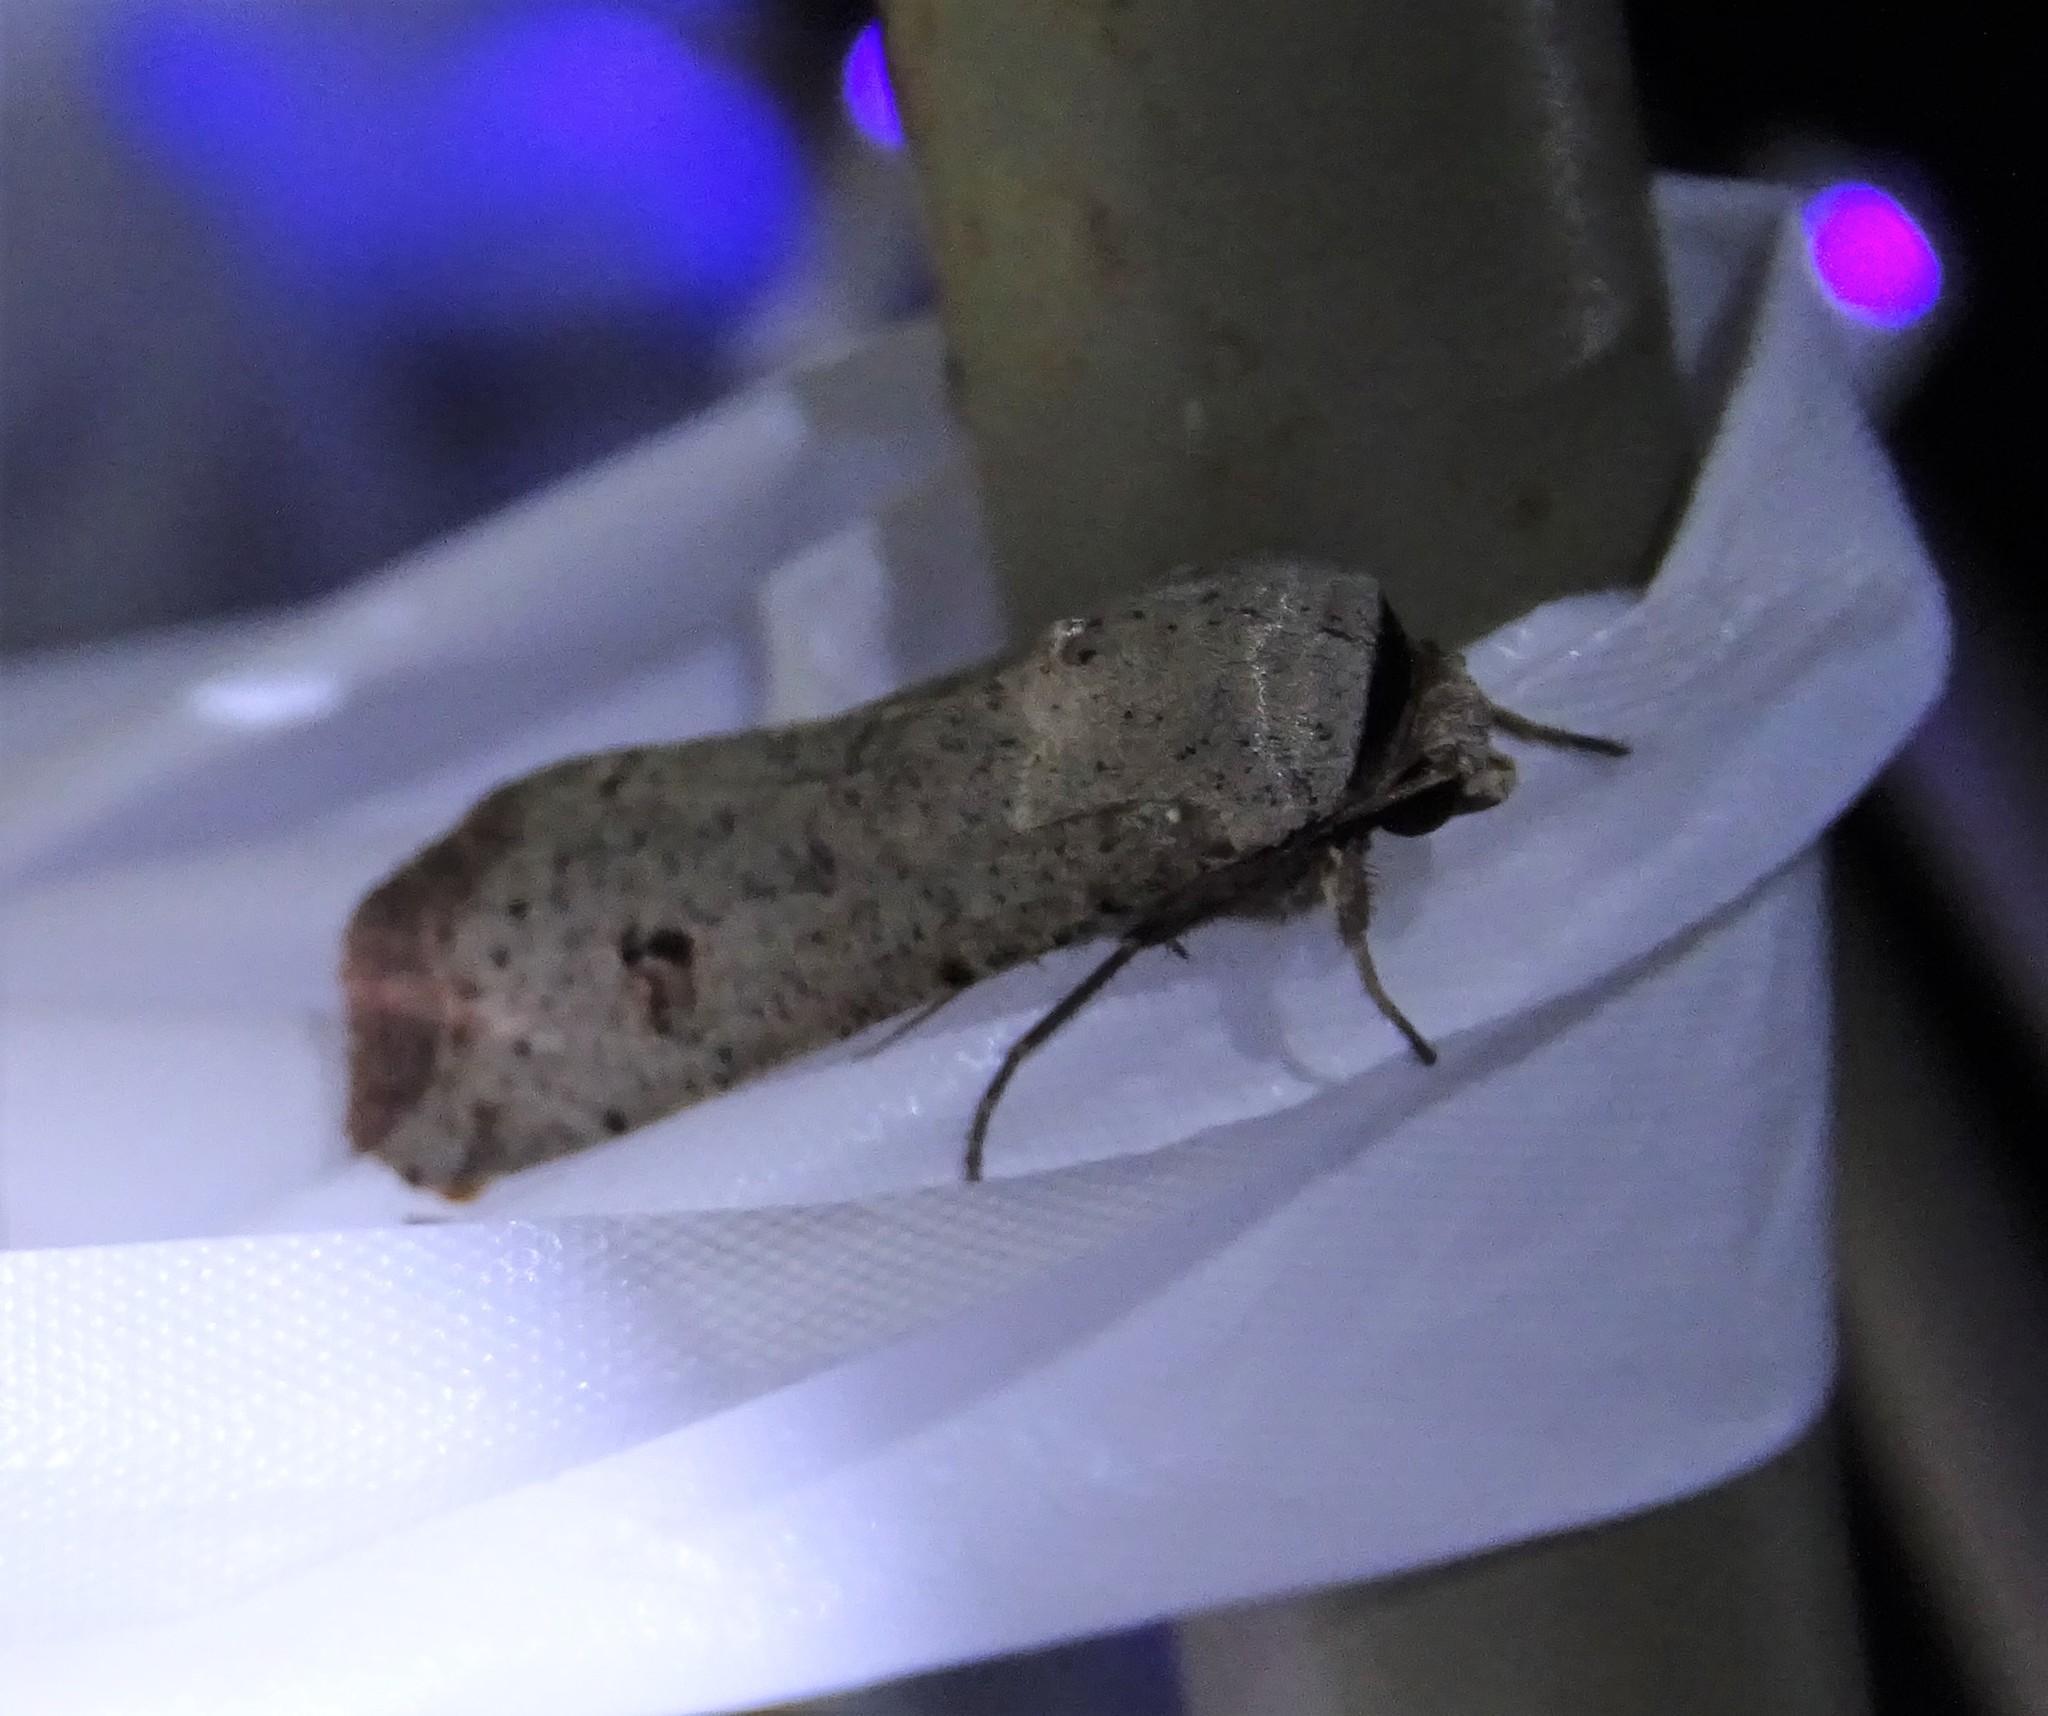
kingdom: Animalia
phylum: Arthropoda
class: Insecta
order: Lepidoptera
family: Noctuidae
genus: Anicla
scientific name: Anicla infecta
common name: Green cutworm
